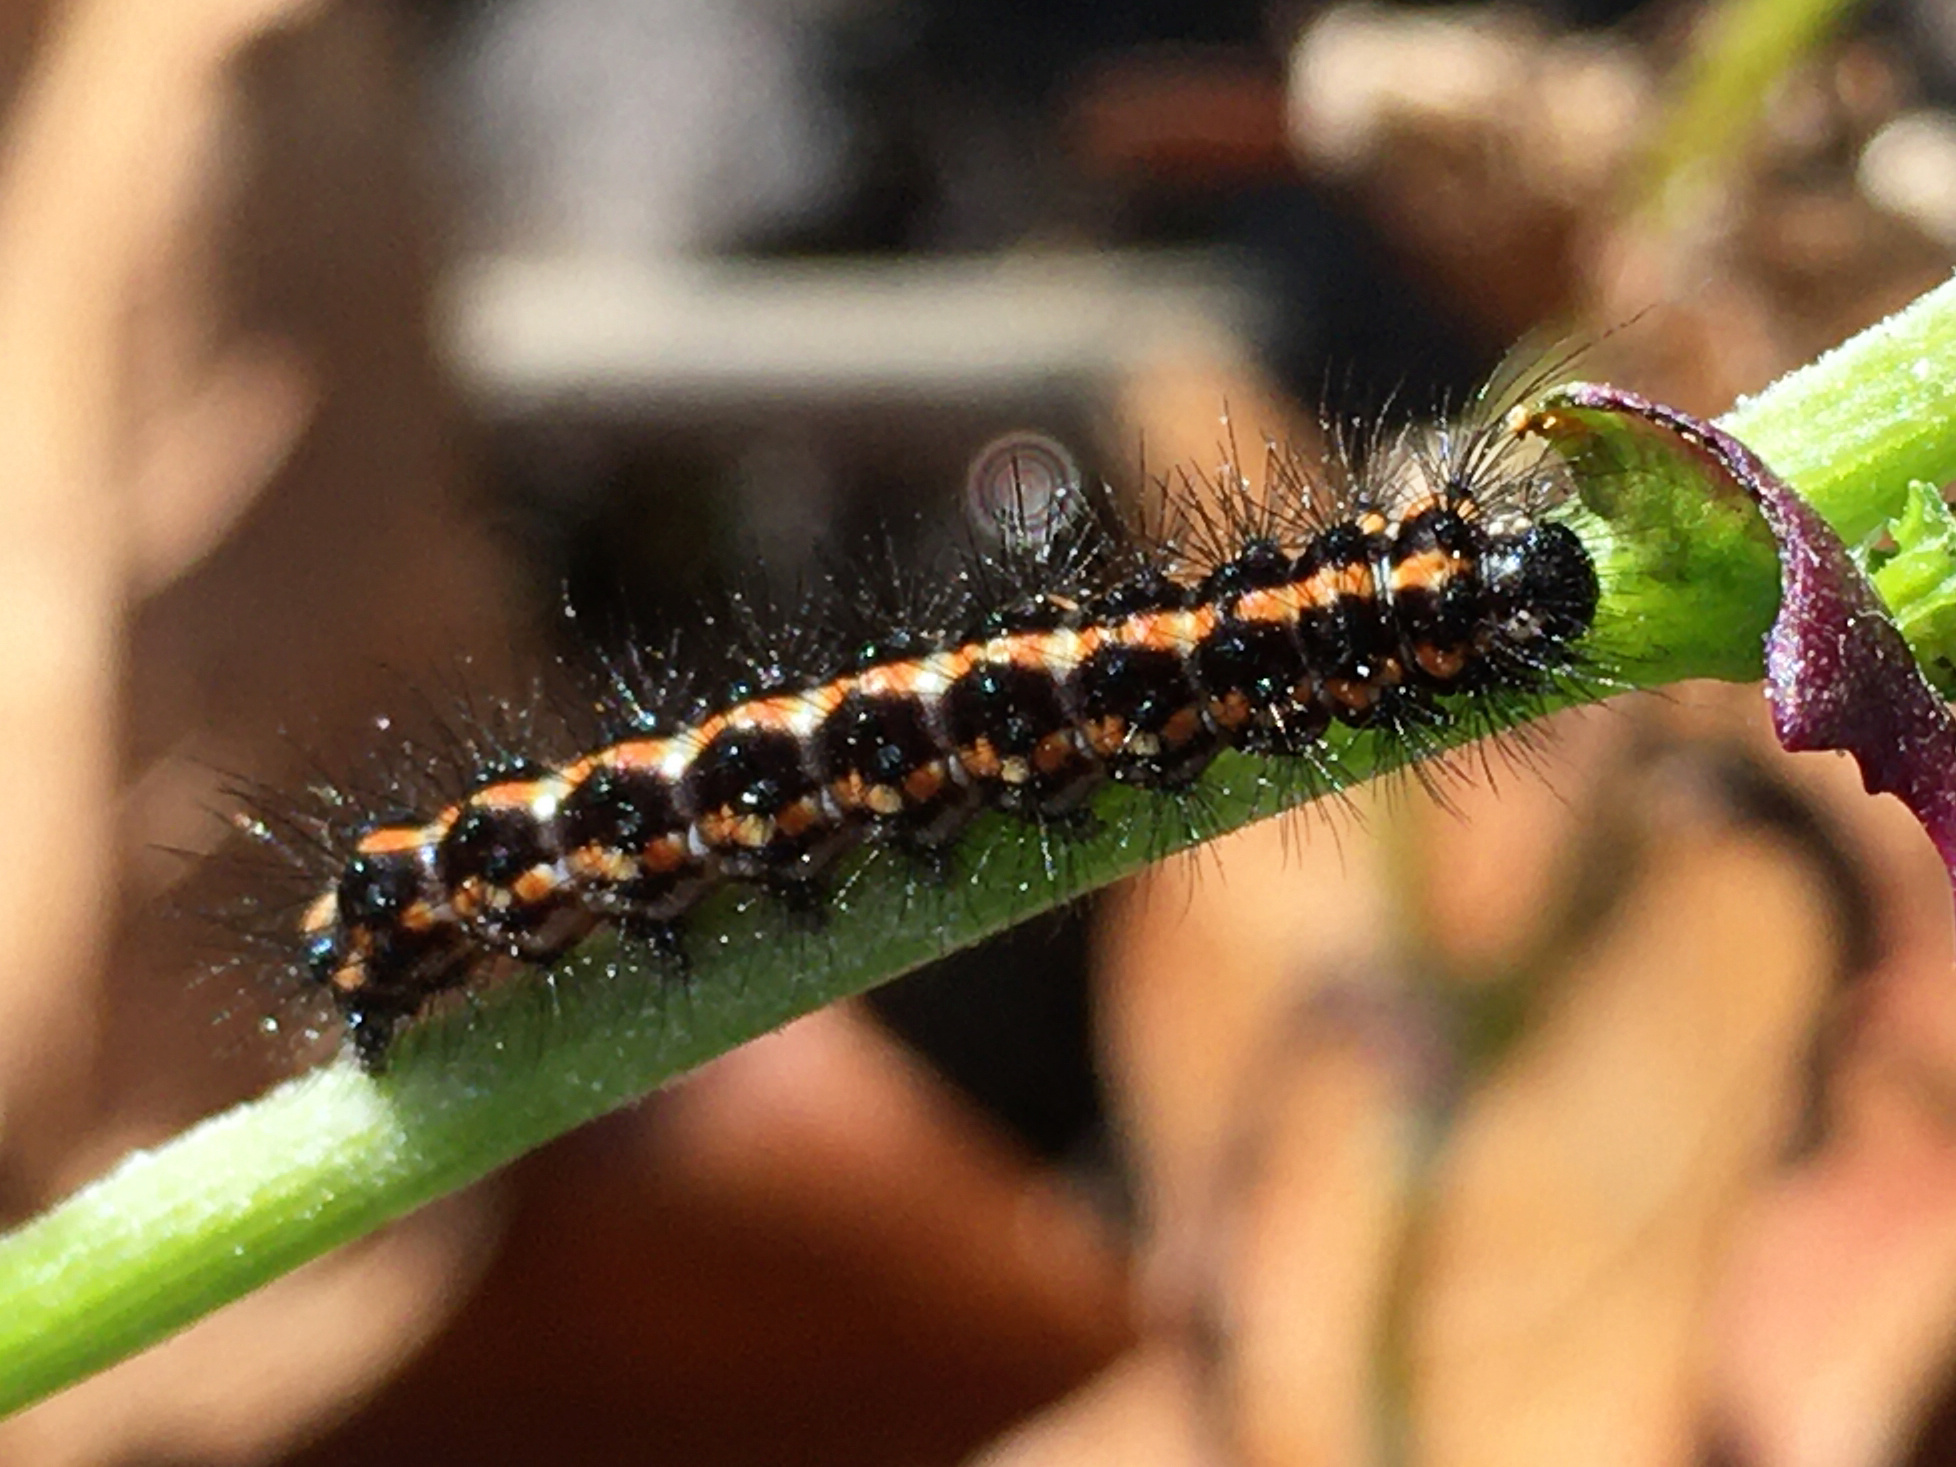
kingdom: Animalia
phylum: Arthropoda
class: Insecta
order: Lepidoptera
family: Erebidae
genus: Nyctemera
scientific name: Nyctemera annulatum
